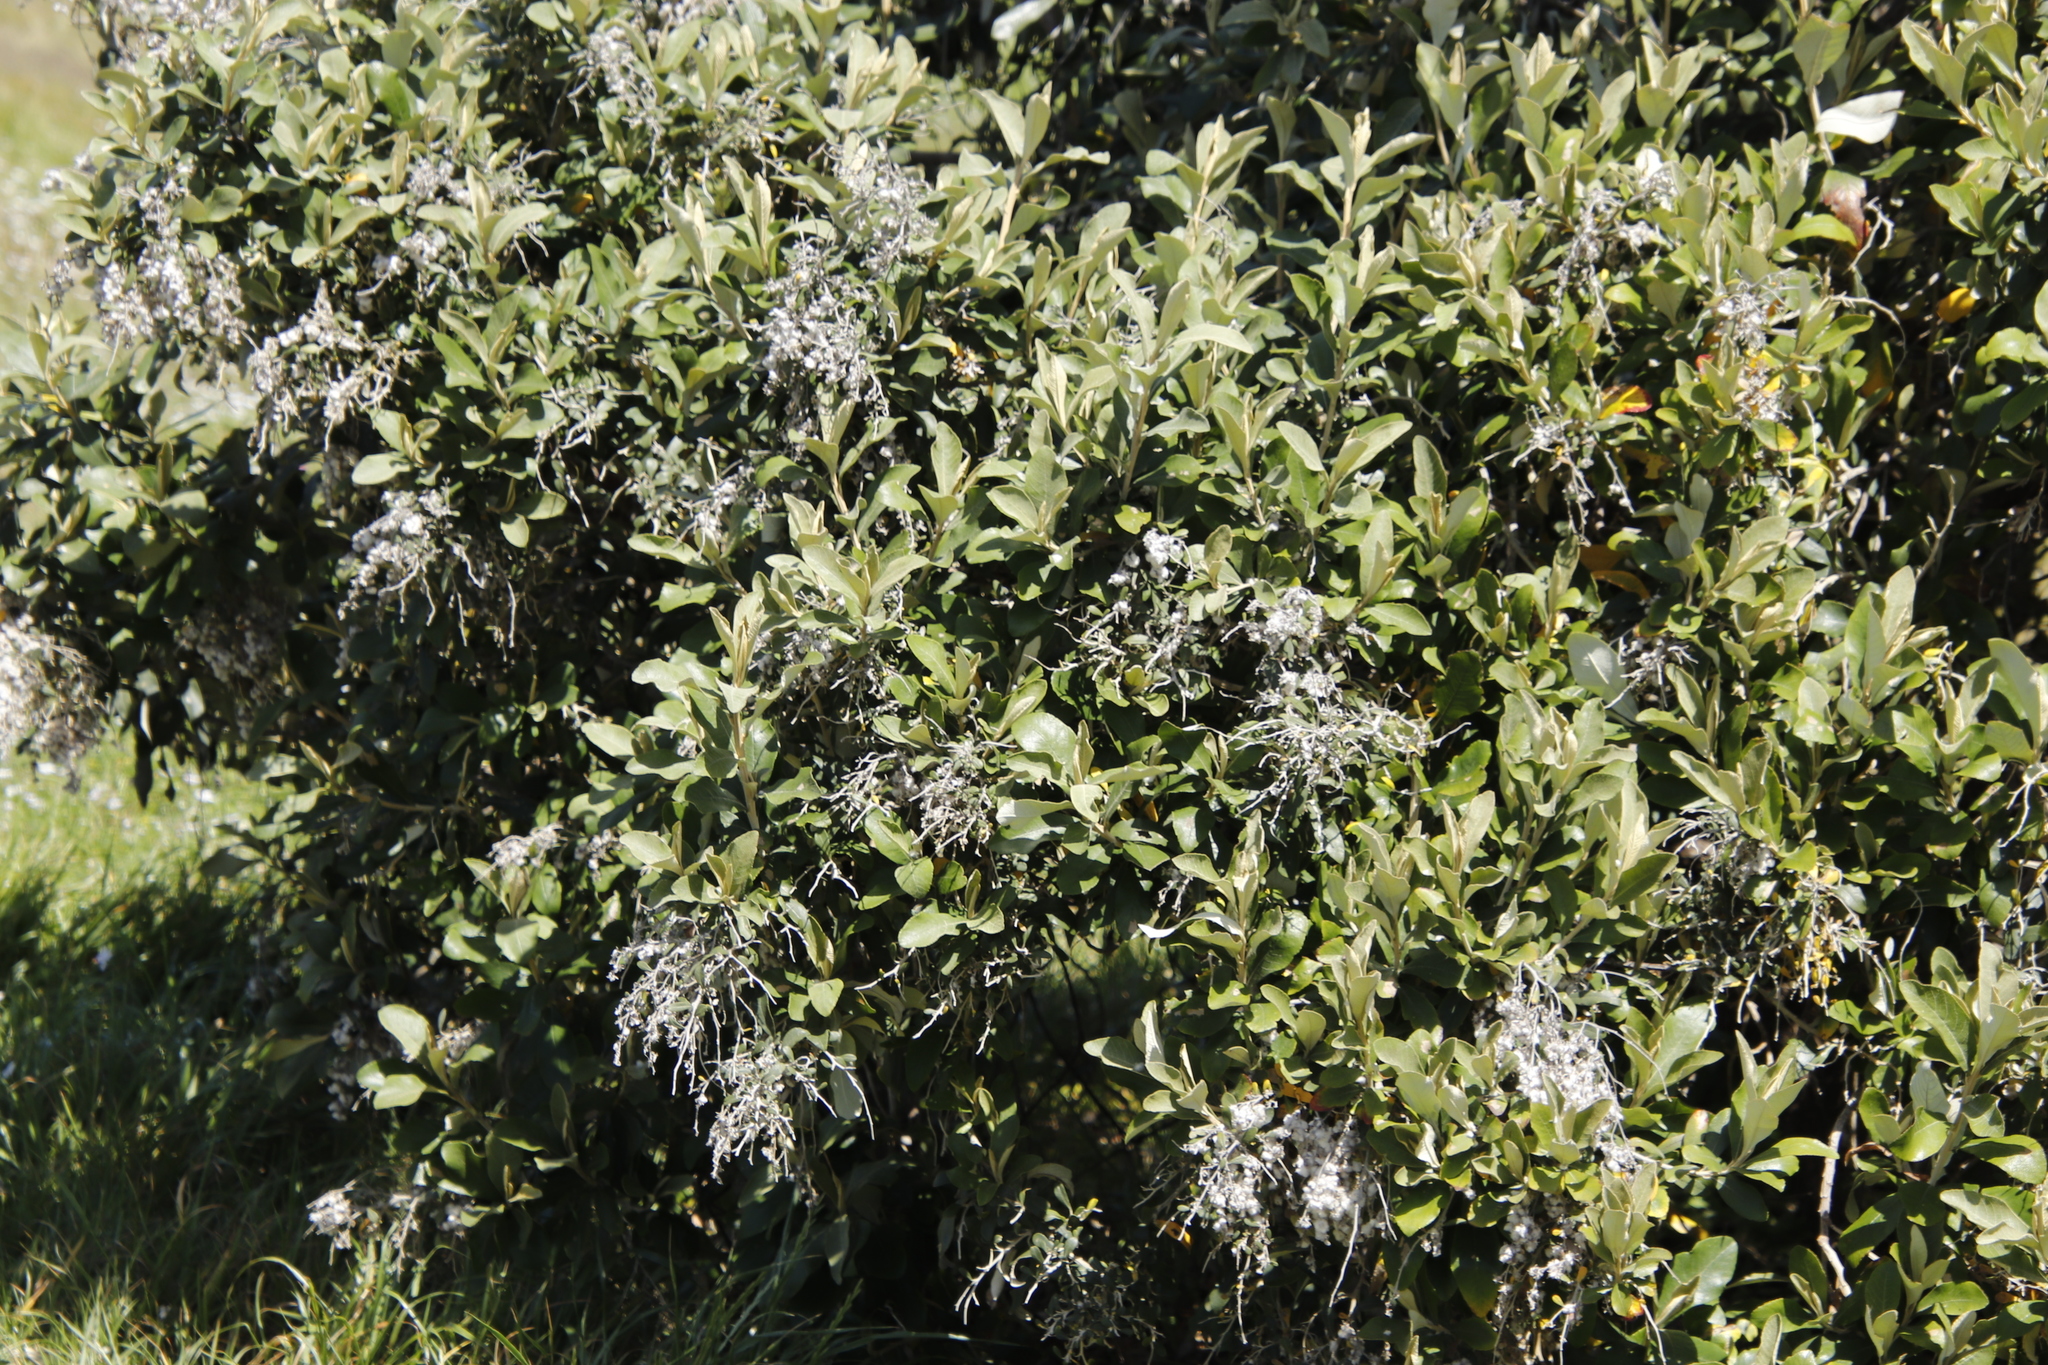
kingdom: Plantae
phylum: Tracheophyta
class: Magnoliopsida
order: Asterales
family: Asteraceae
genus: Tarchonanthus
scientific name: Tarchonanthus littoralis
